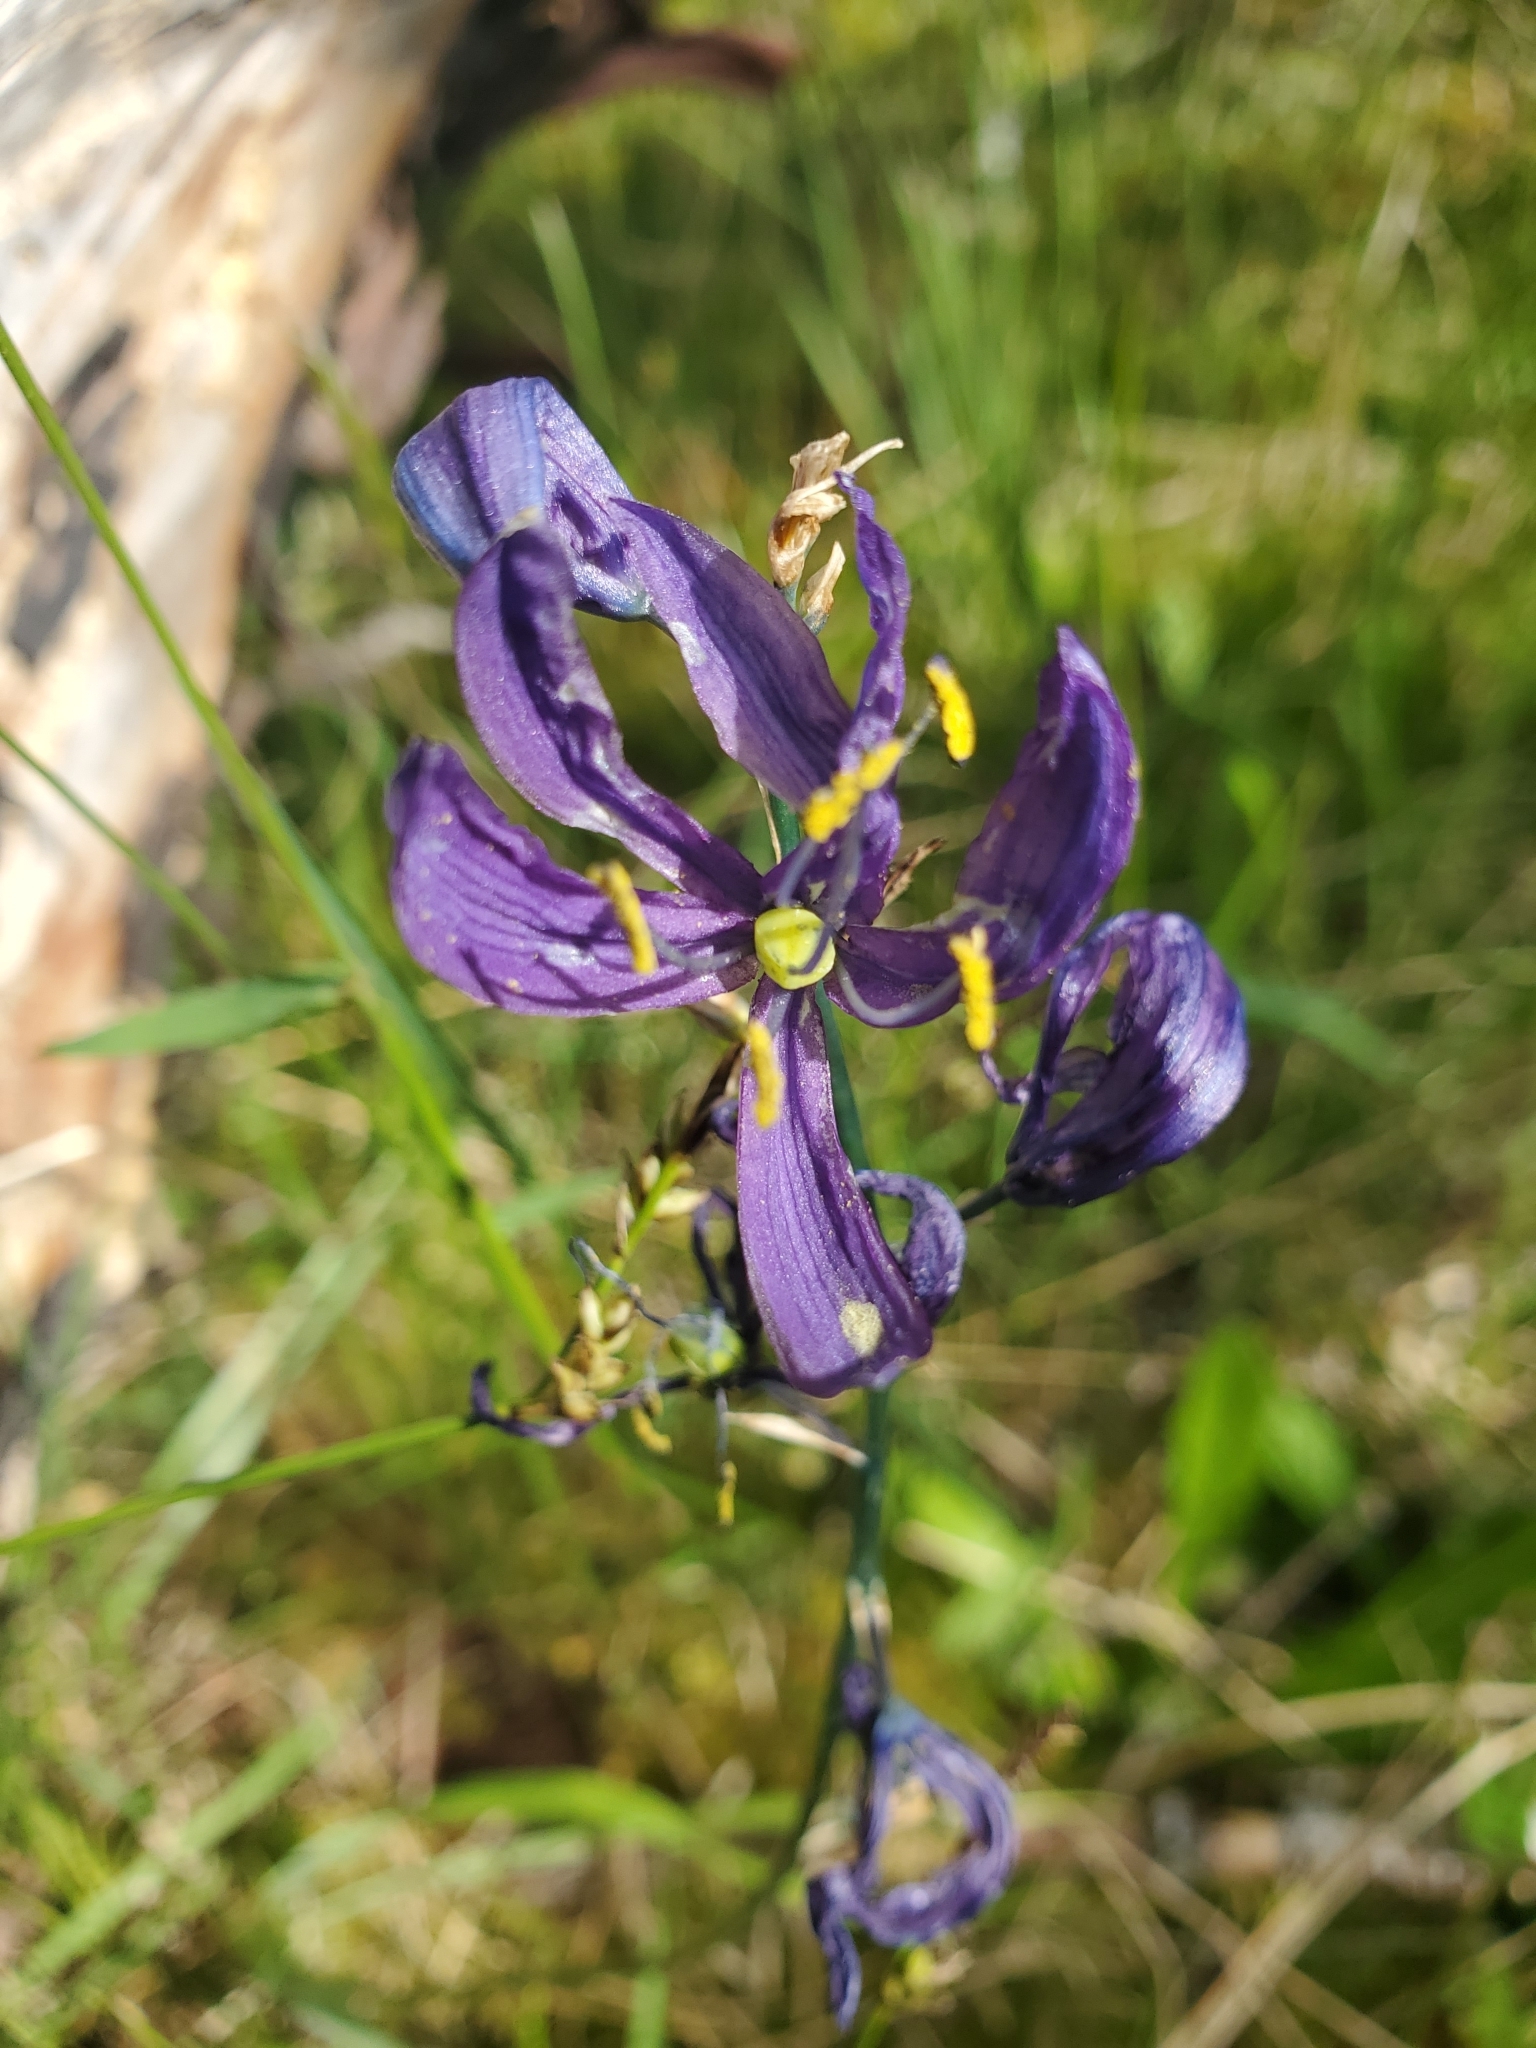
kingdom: Plantae
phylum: Tracheophyta
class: Liliopsida
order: Asparagales
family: Asparagaceae
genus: Camassia
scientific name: Camassia quamash
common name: Common camas
